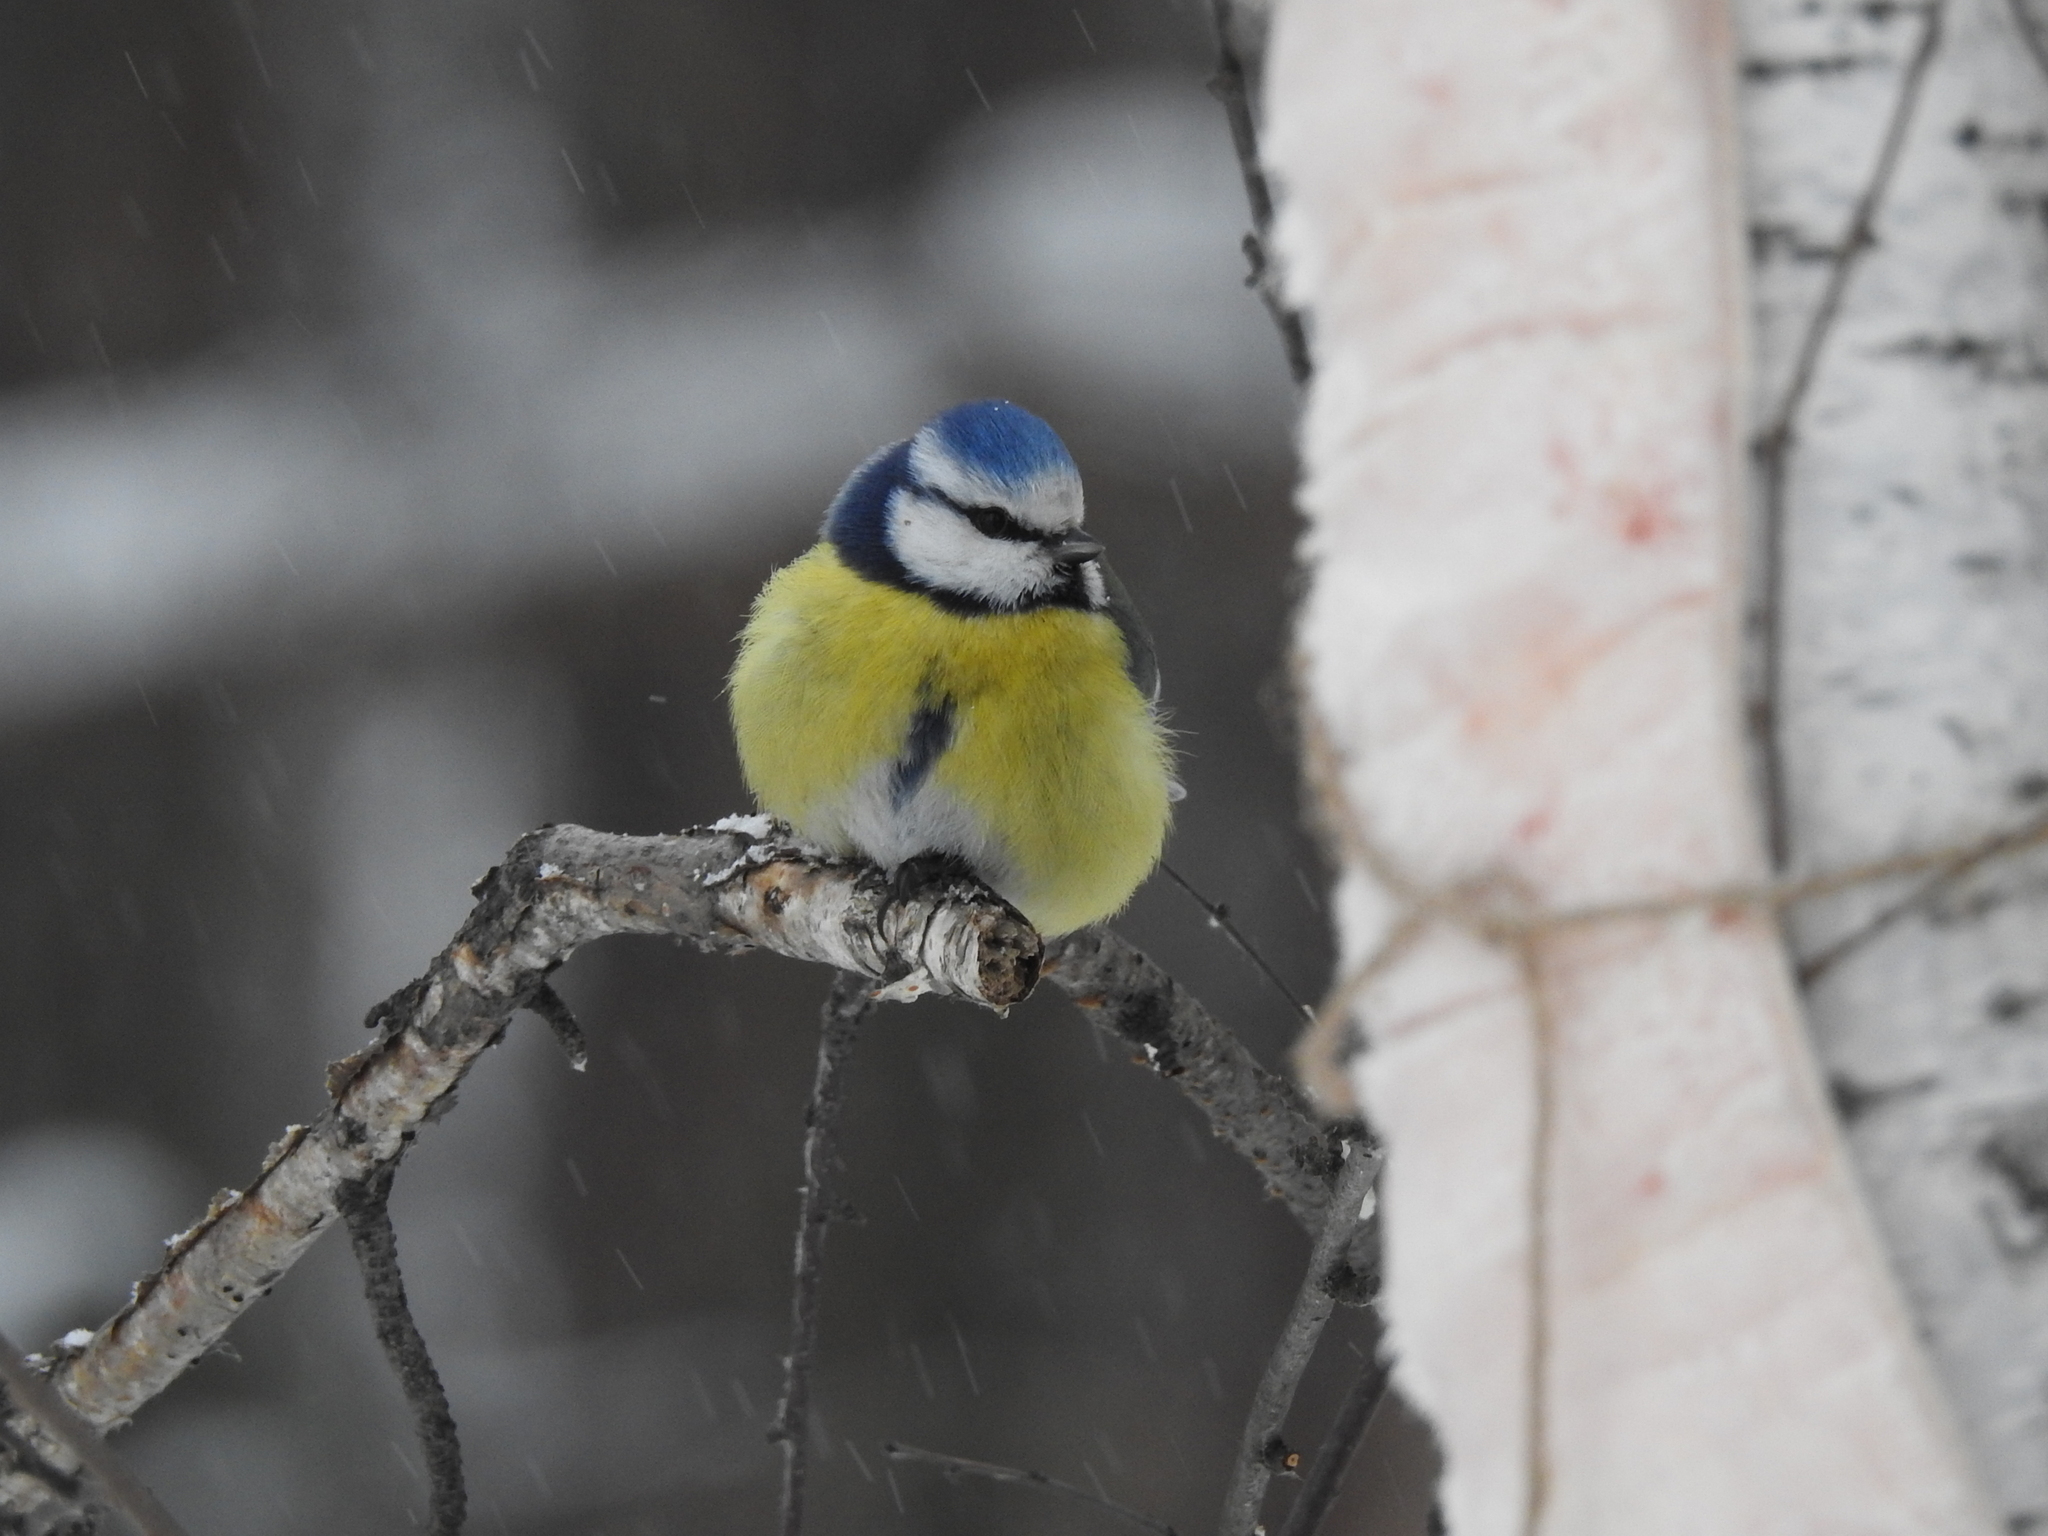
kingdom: Animalia
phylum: Chordata
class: Aves
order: Passeriformes
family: Paridae
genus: Cyanistes
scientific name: Cyanistes caeruleus
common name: Eurasian blue tit
